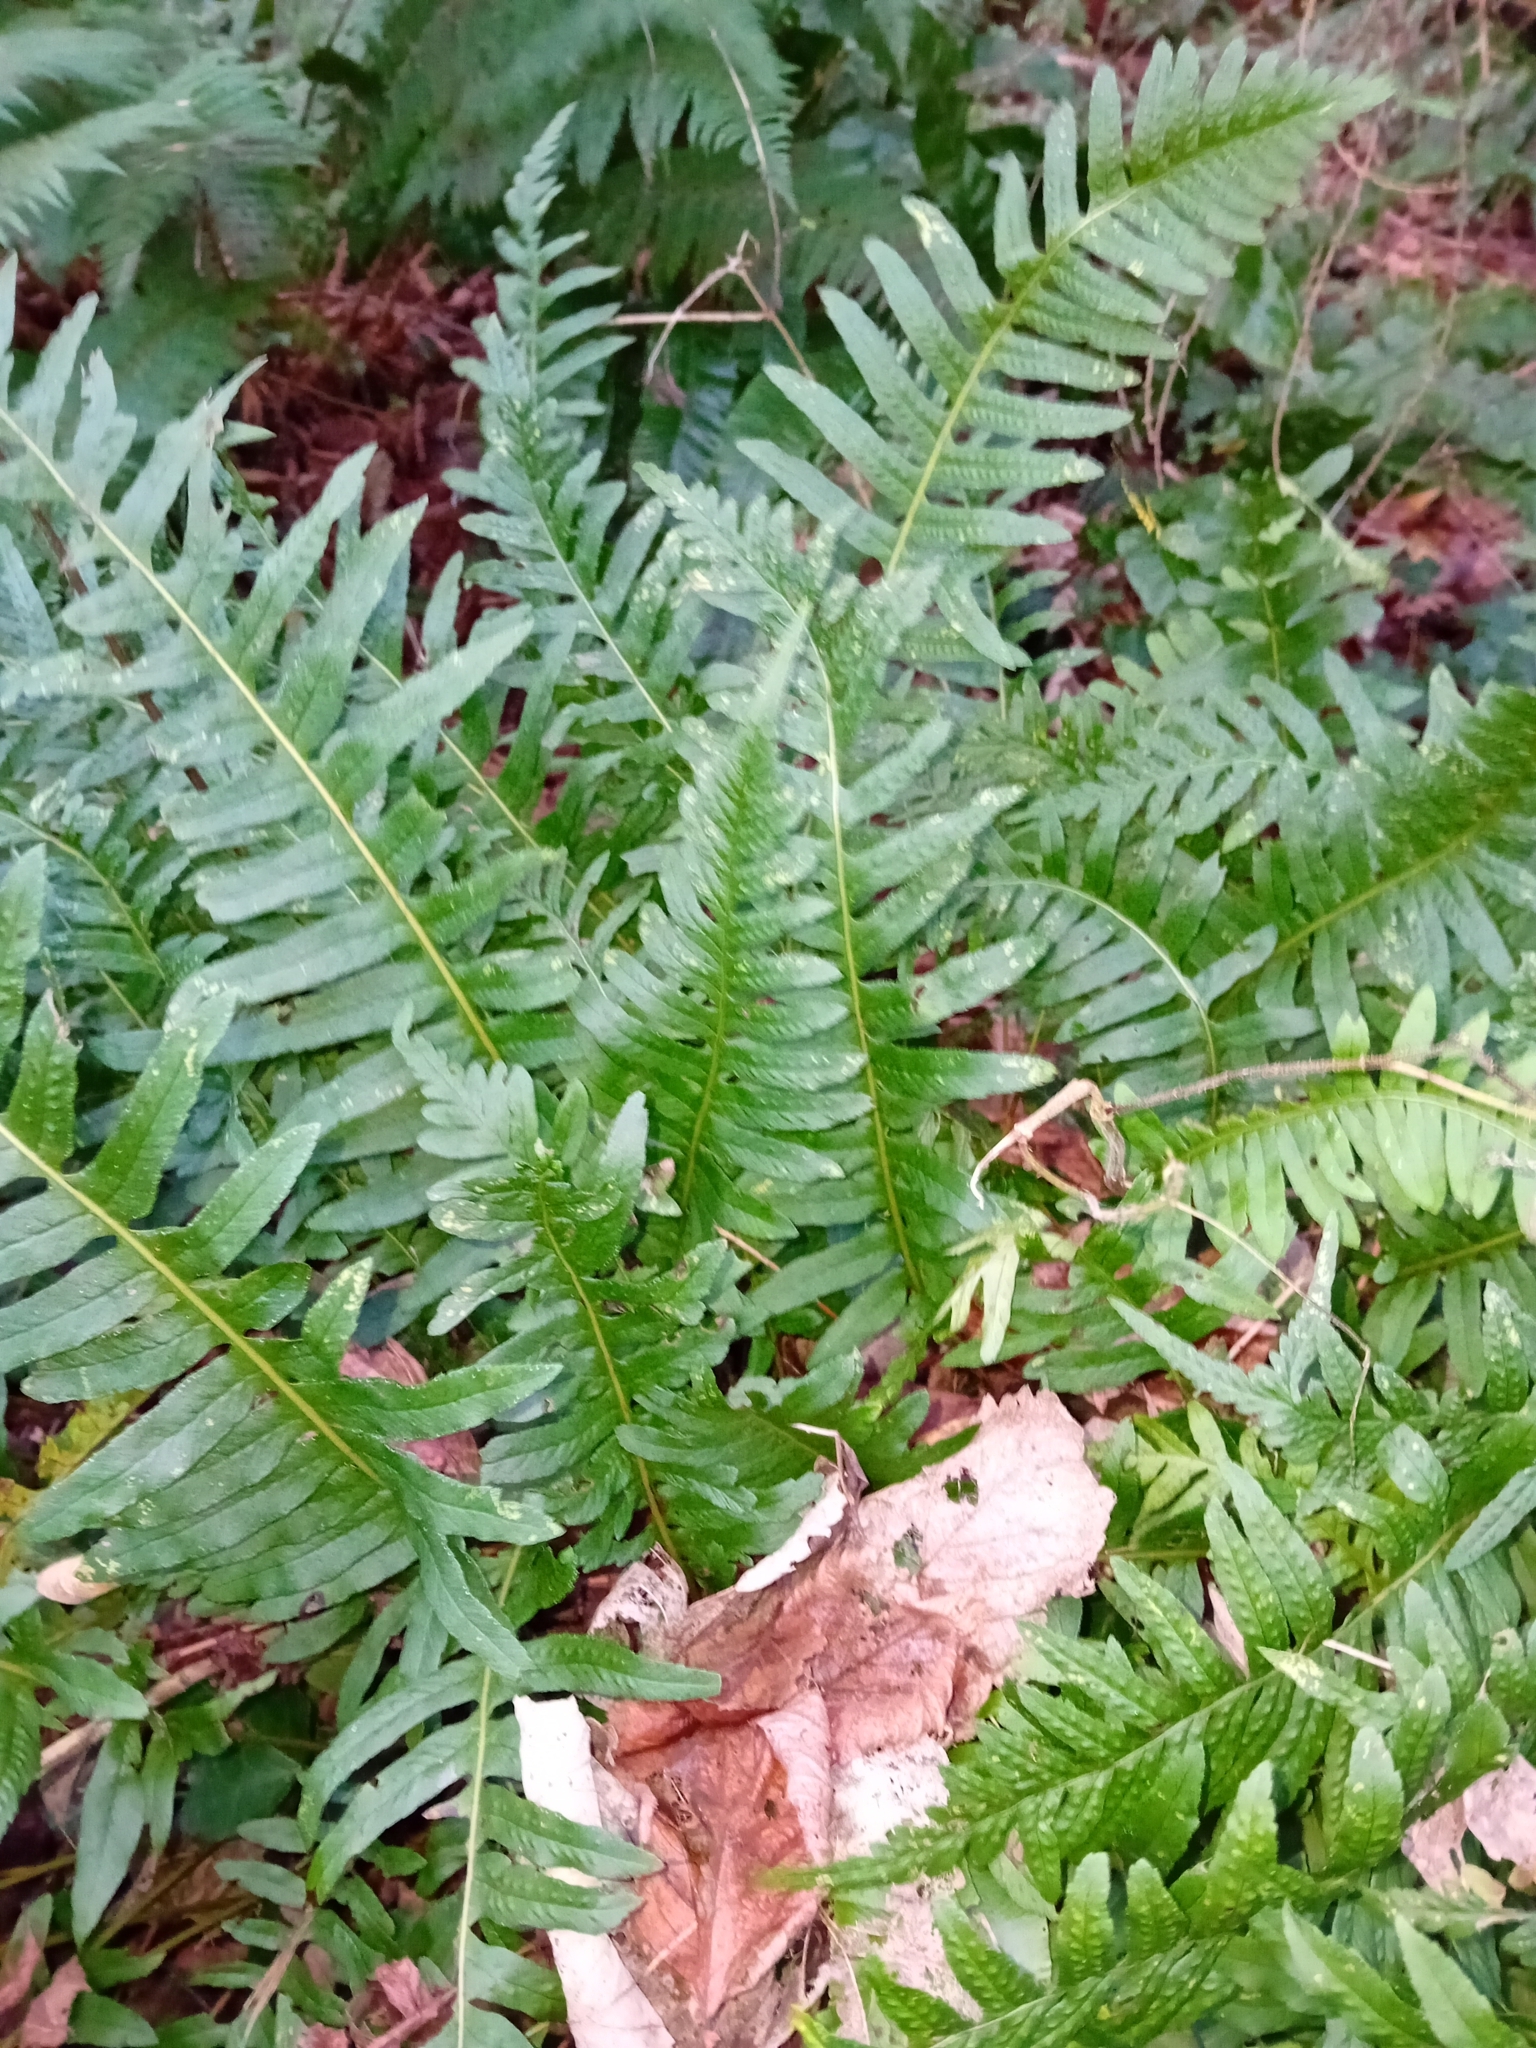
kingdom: Plantae
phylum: Tracheophyta
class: Polypodiopsida
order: Polypodiales
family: Polypodiaceae
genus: Polypodium
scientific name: Polypodium
